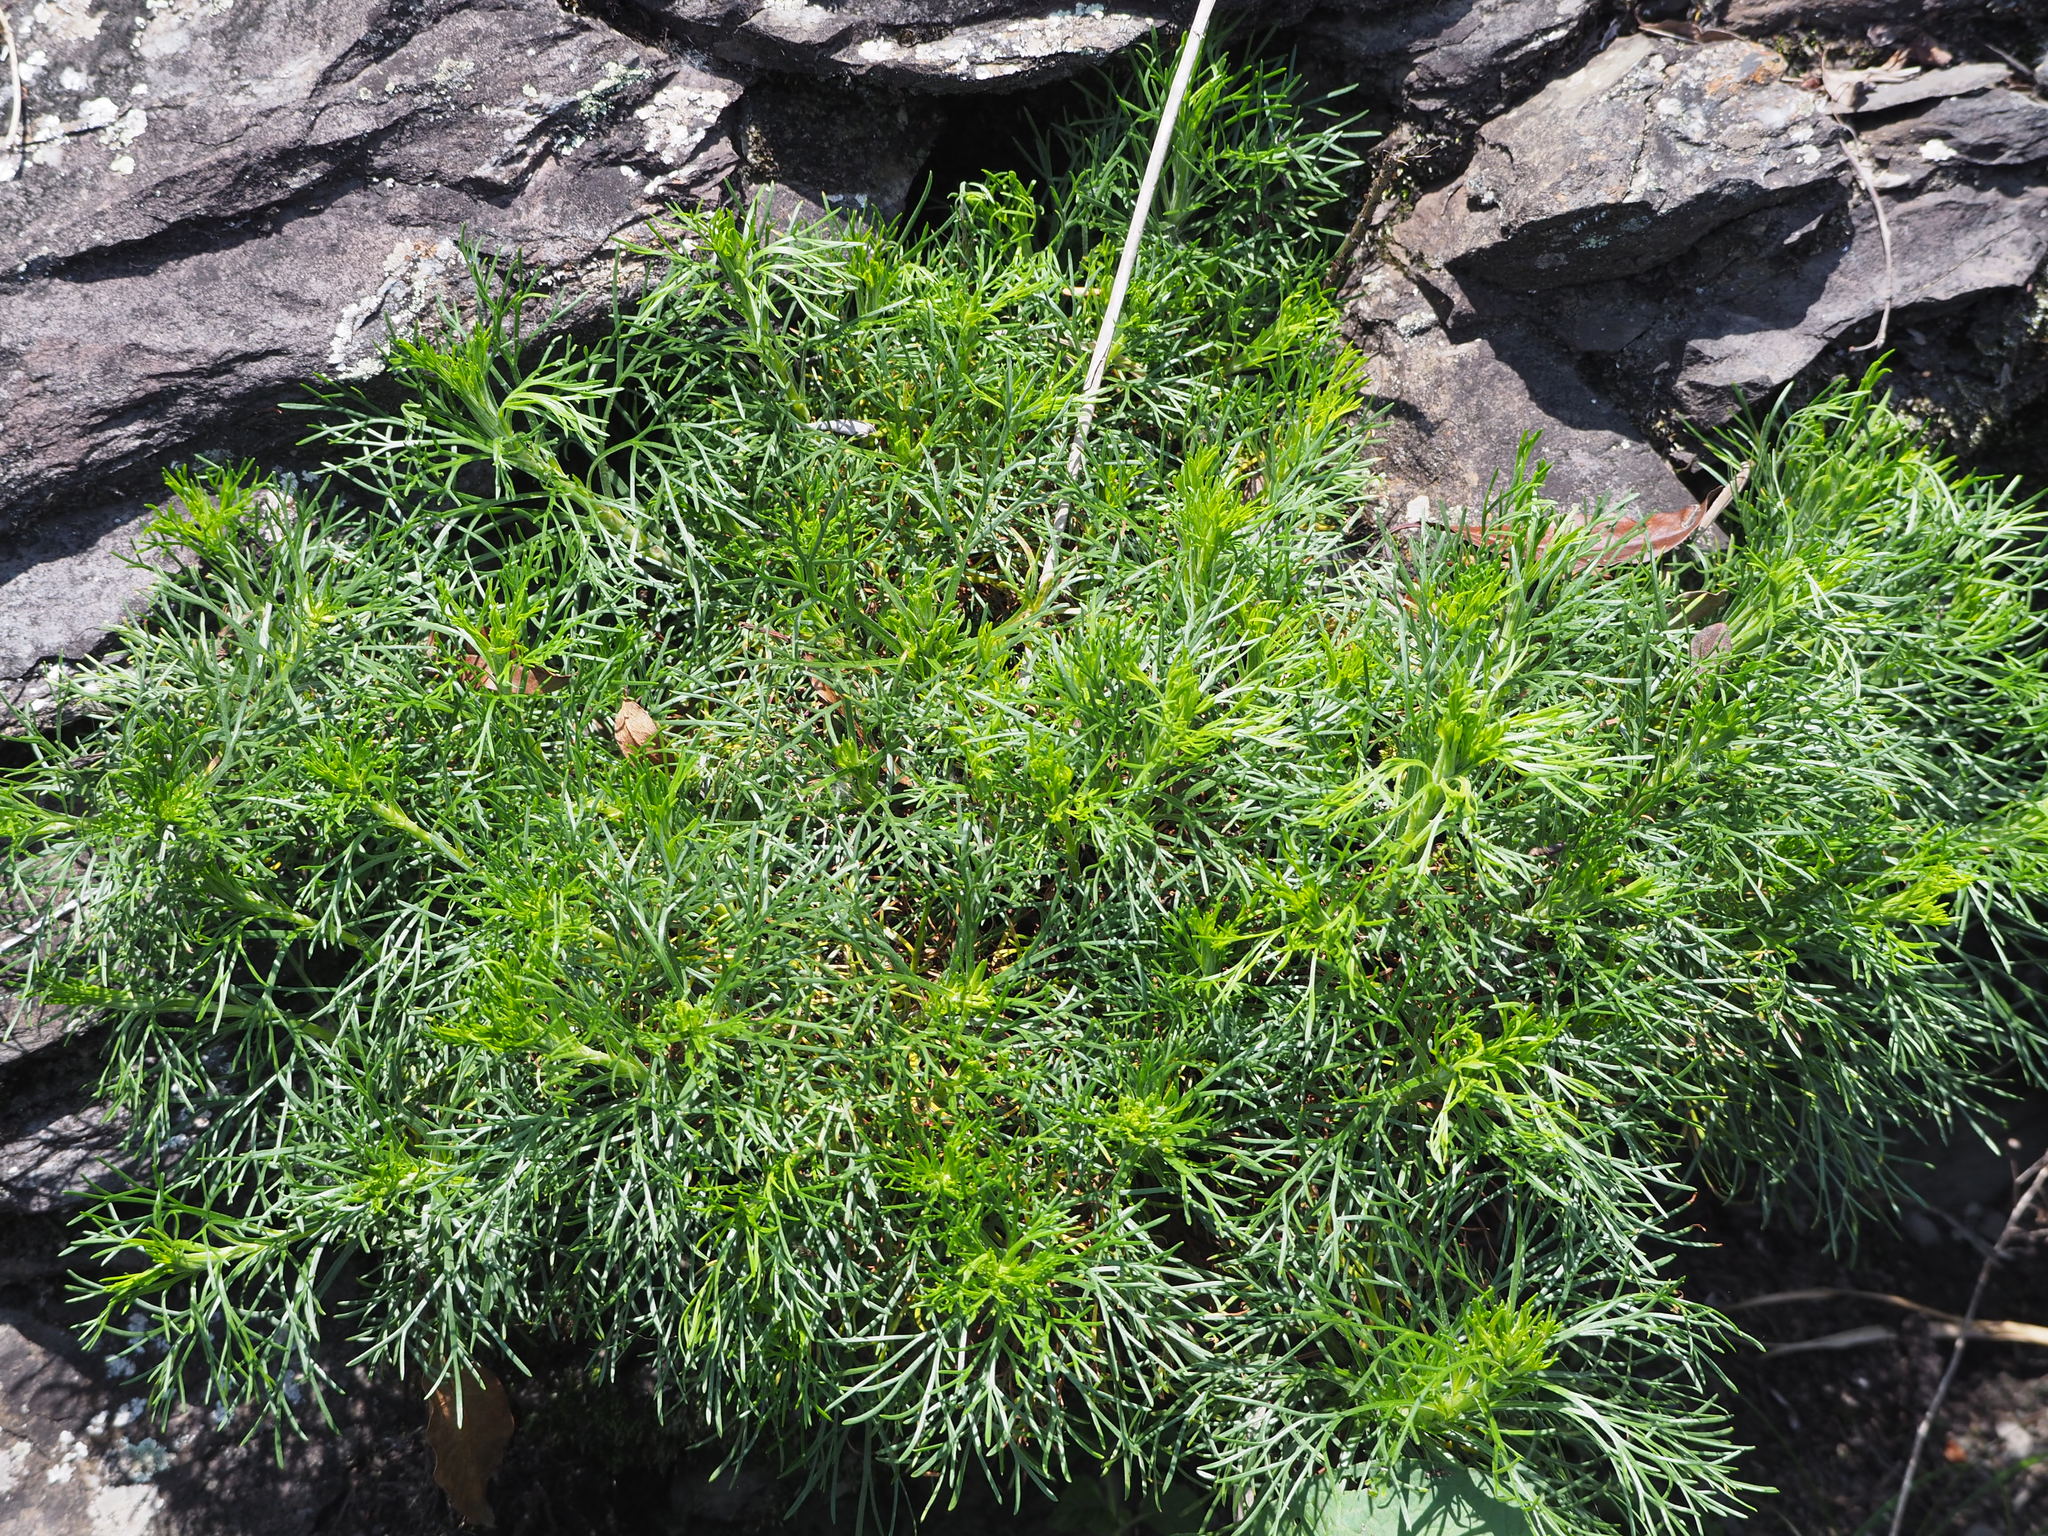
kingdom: Plantae
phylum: Tracheophyta
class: Magnoliopsida
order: Asterales
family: Asteraceae
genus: Artemisia
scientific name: Artemisia morrisonensis
